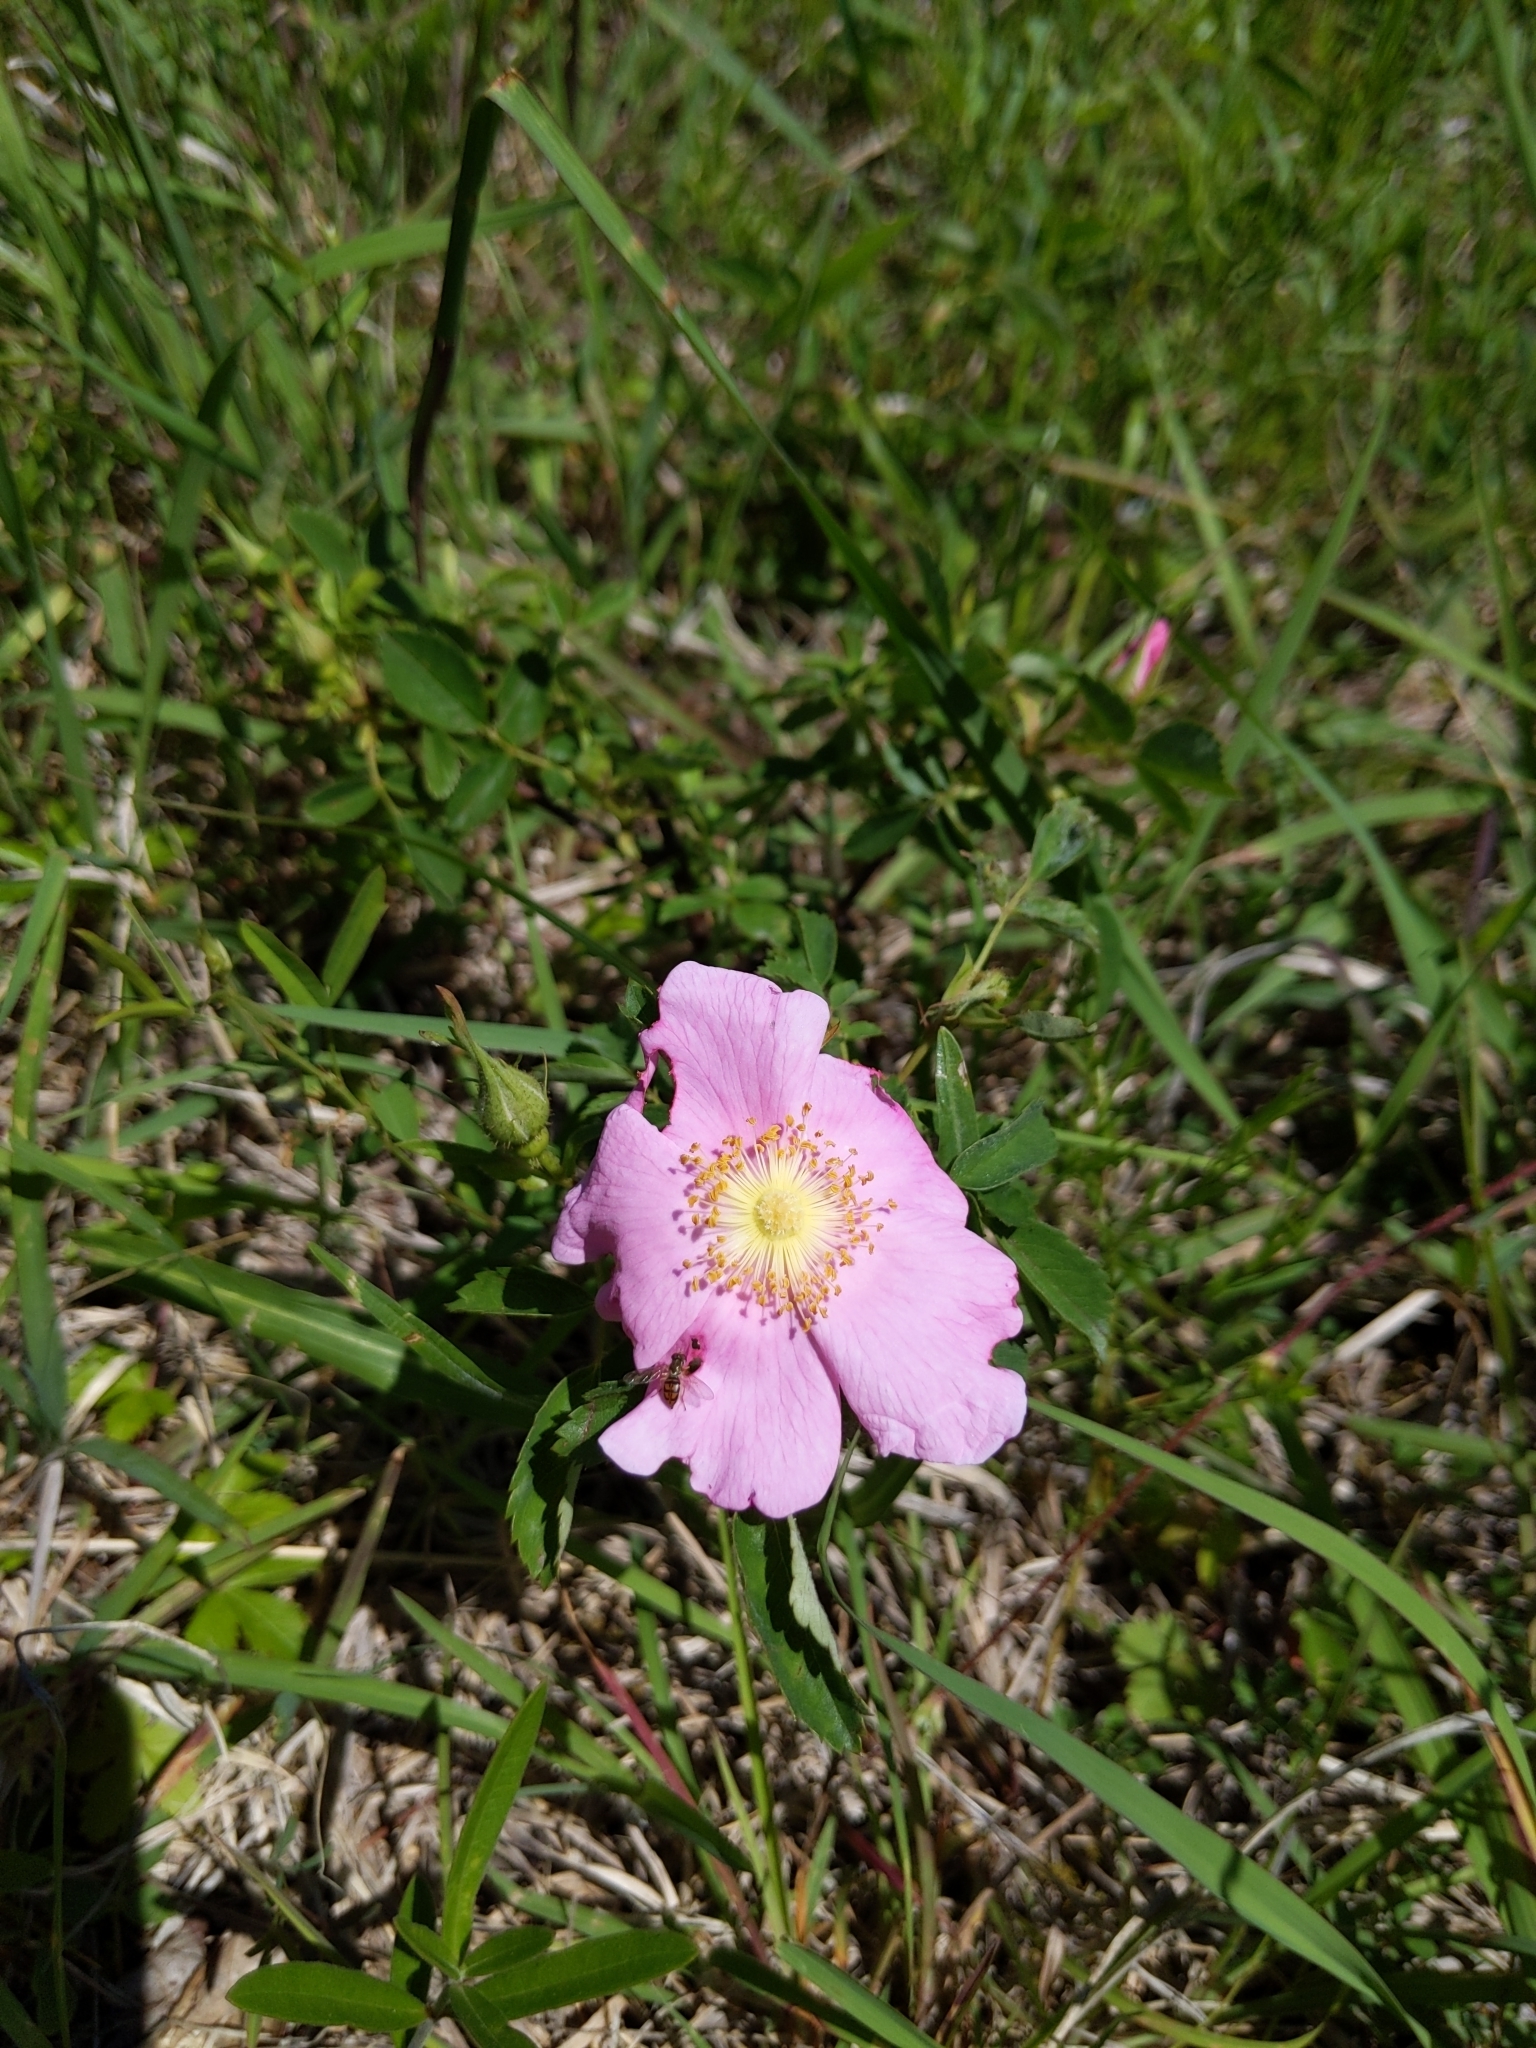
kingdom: Plantae
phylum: Tracheophyta
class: Magnoliopsida
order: Rosales
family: Rosaceae
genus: Rosa
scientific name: Rosa carolina
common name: Pasture rose
